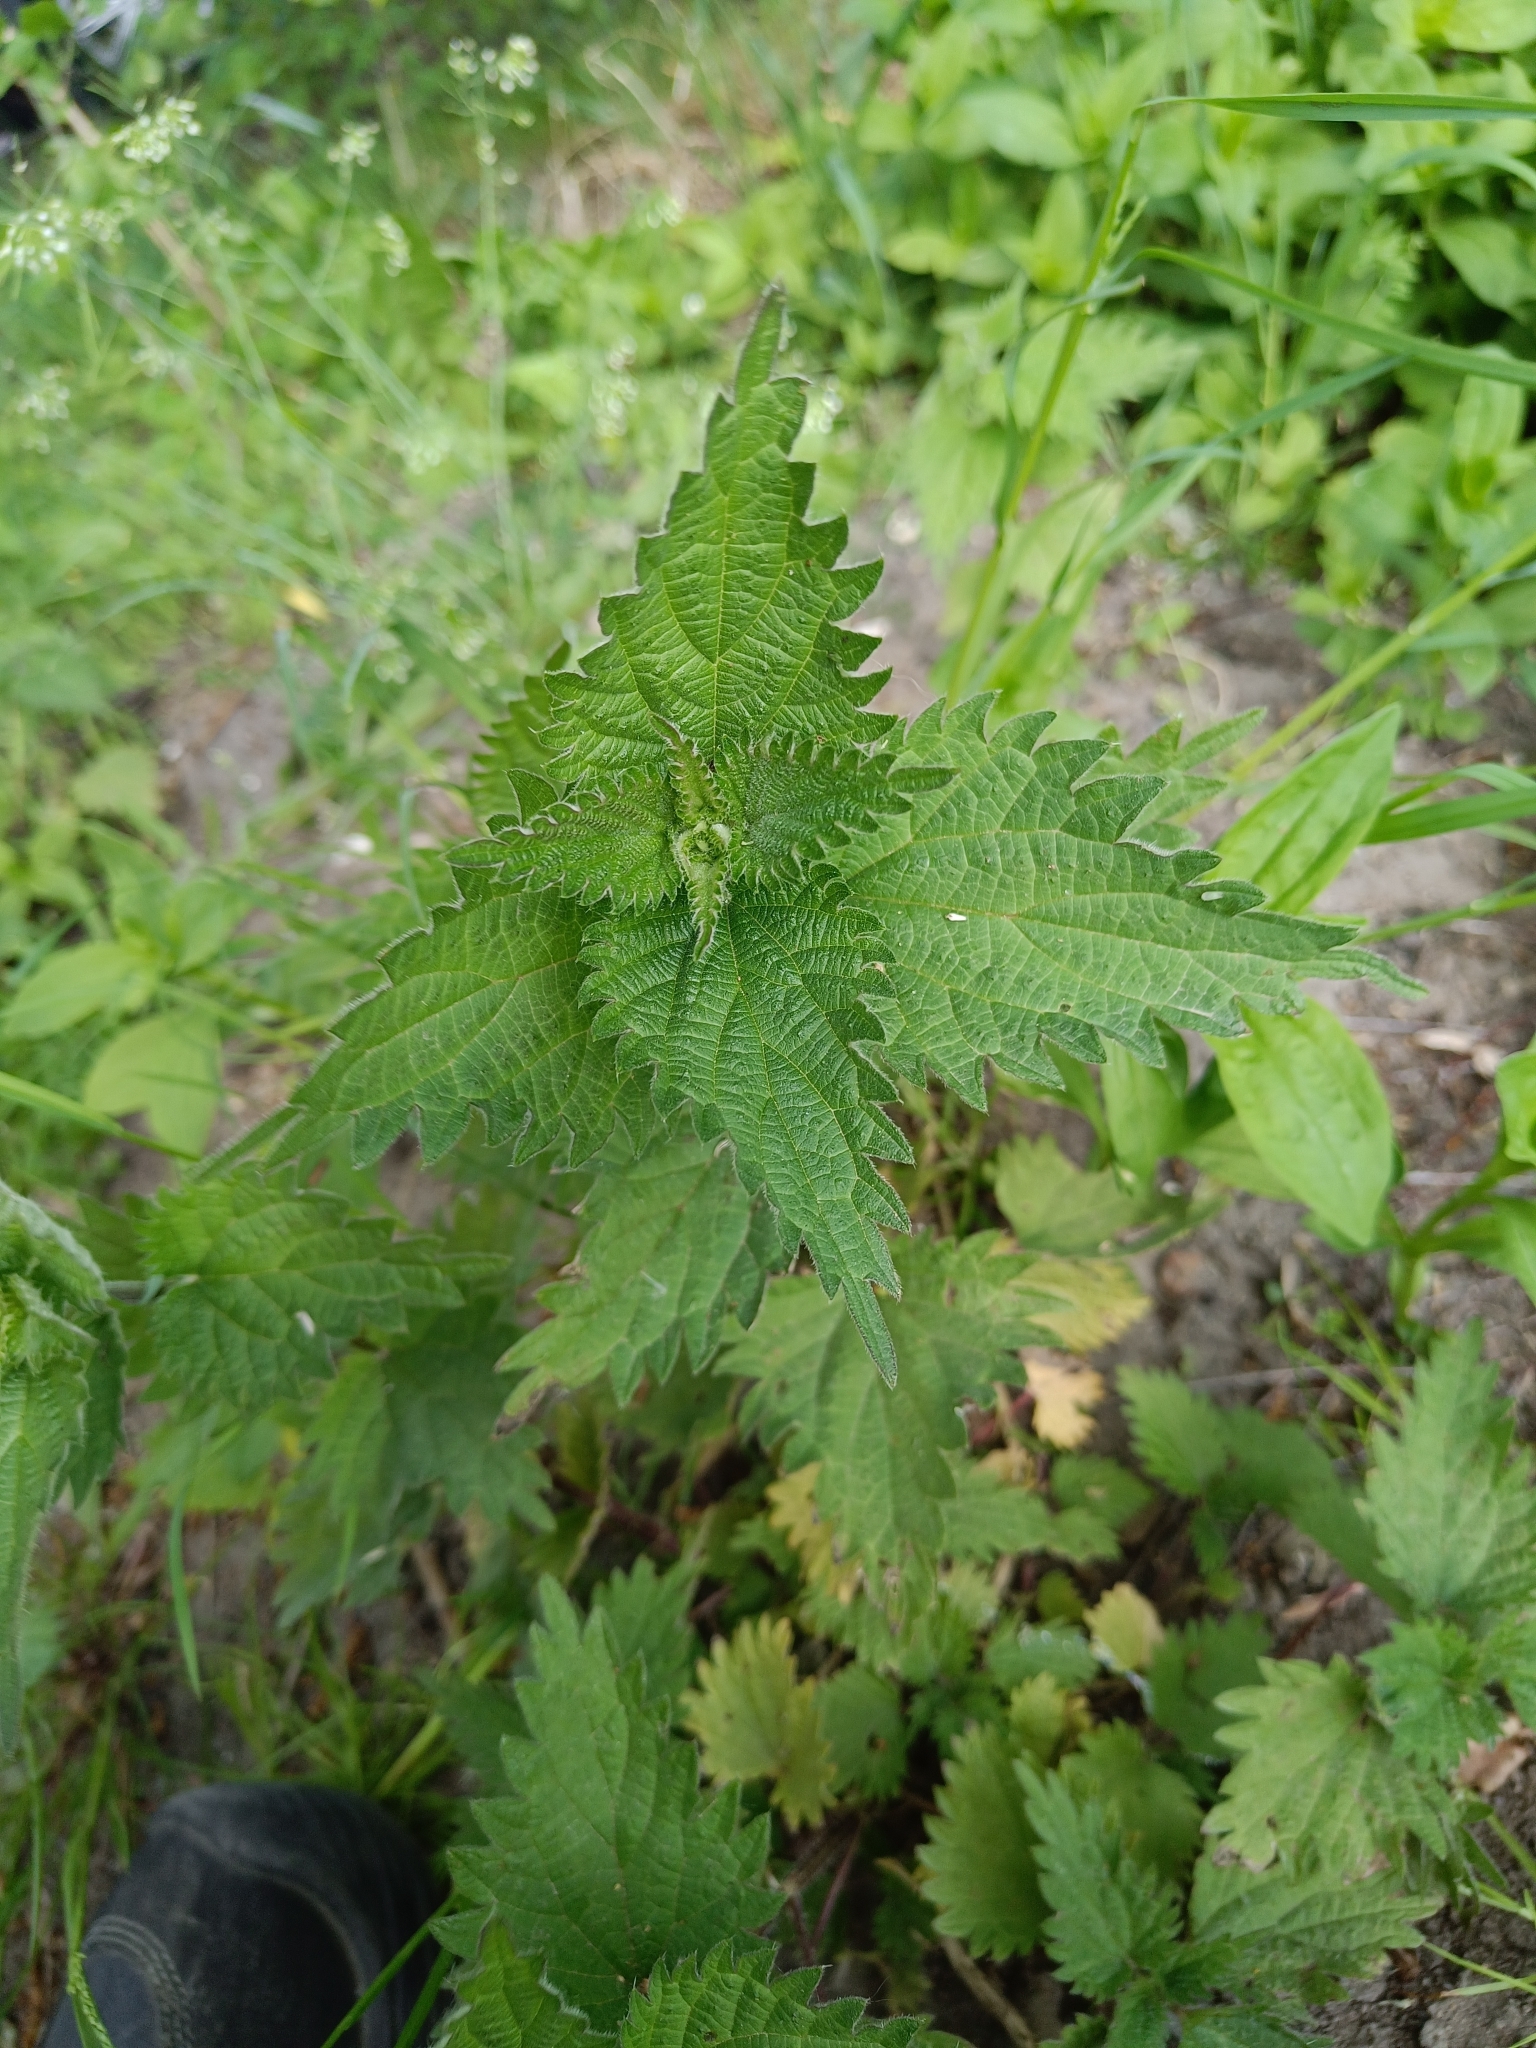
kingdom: Plantae
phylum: Tracheophyta
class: Magnoliopsida
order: Rosales
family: Urticaceae
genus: Urtica
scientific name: Urtica dioica
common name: Common nettle
